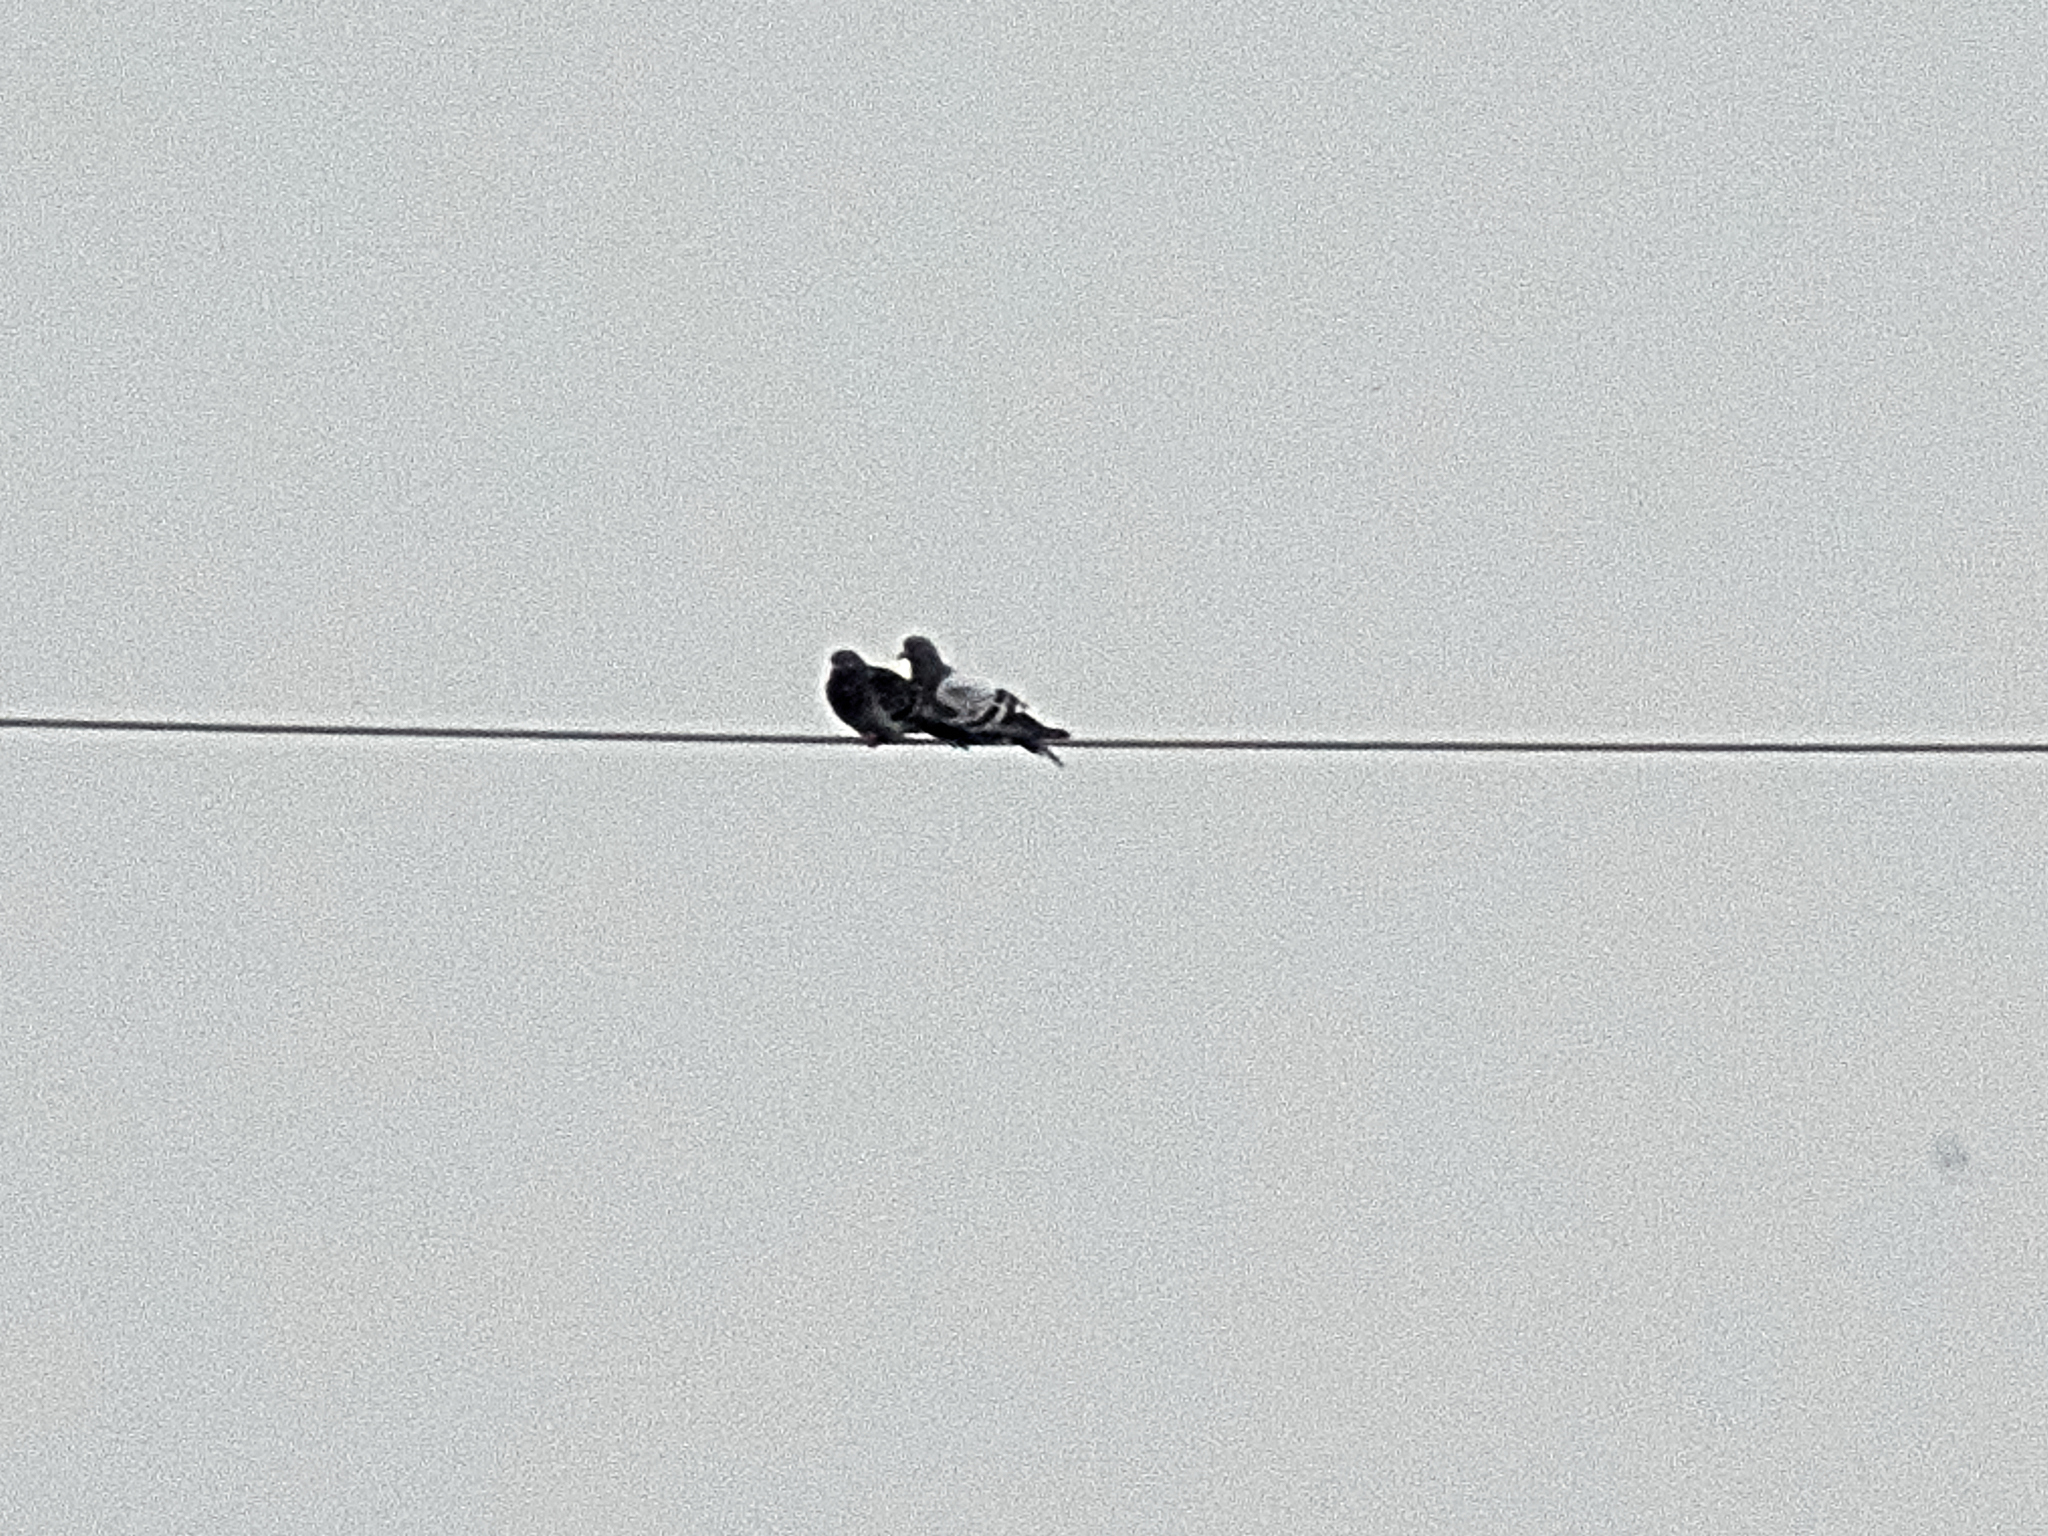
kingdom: Animalia
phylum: Chordata
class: Aves
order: Columbiformes
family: Columbidae
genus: Columba
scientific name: Columba livia
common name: Rock pigeon
